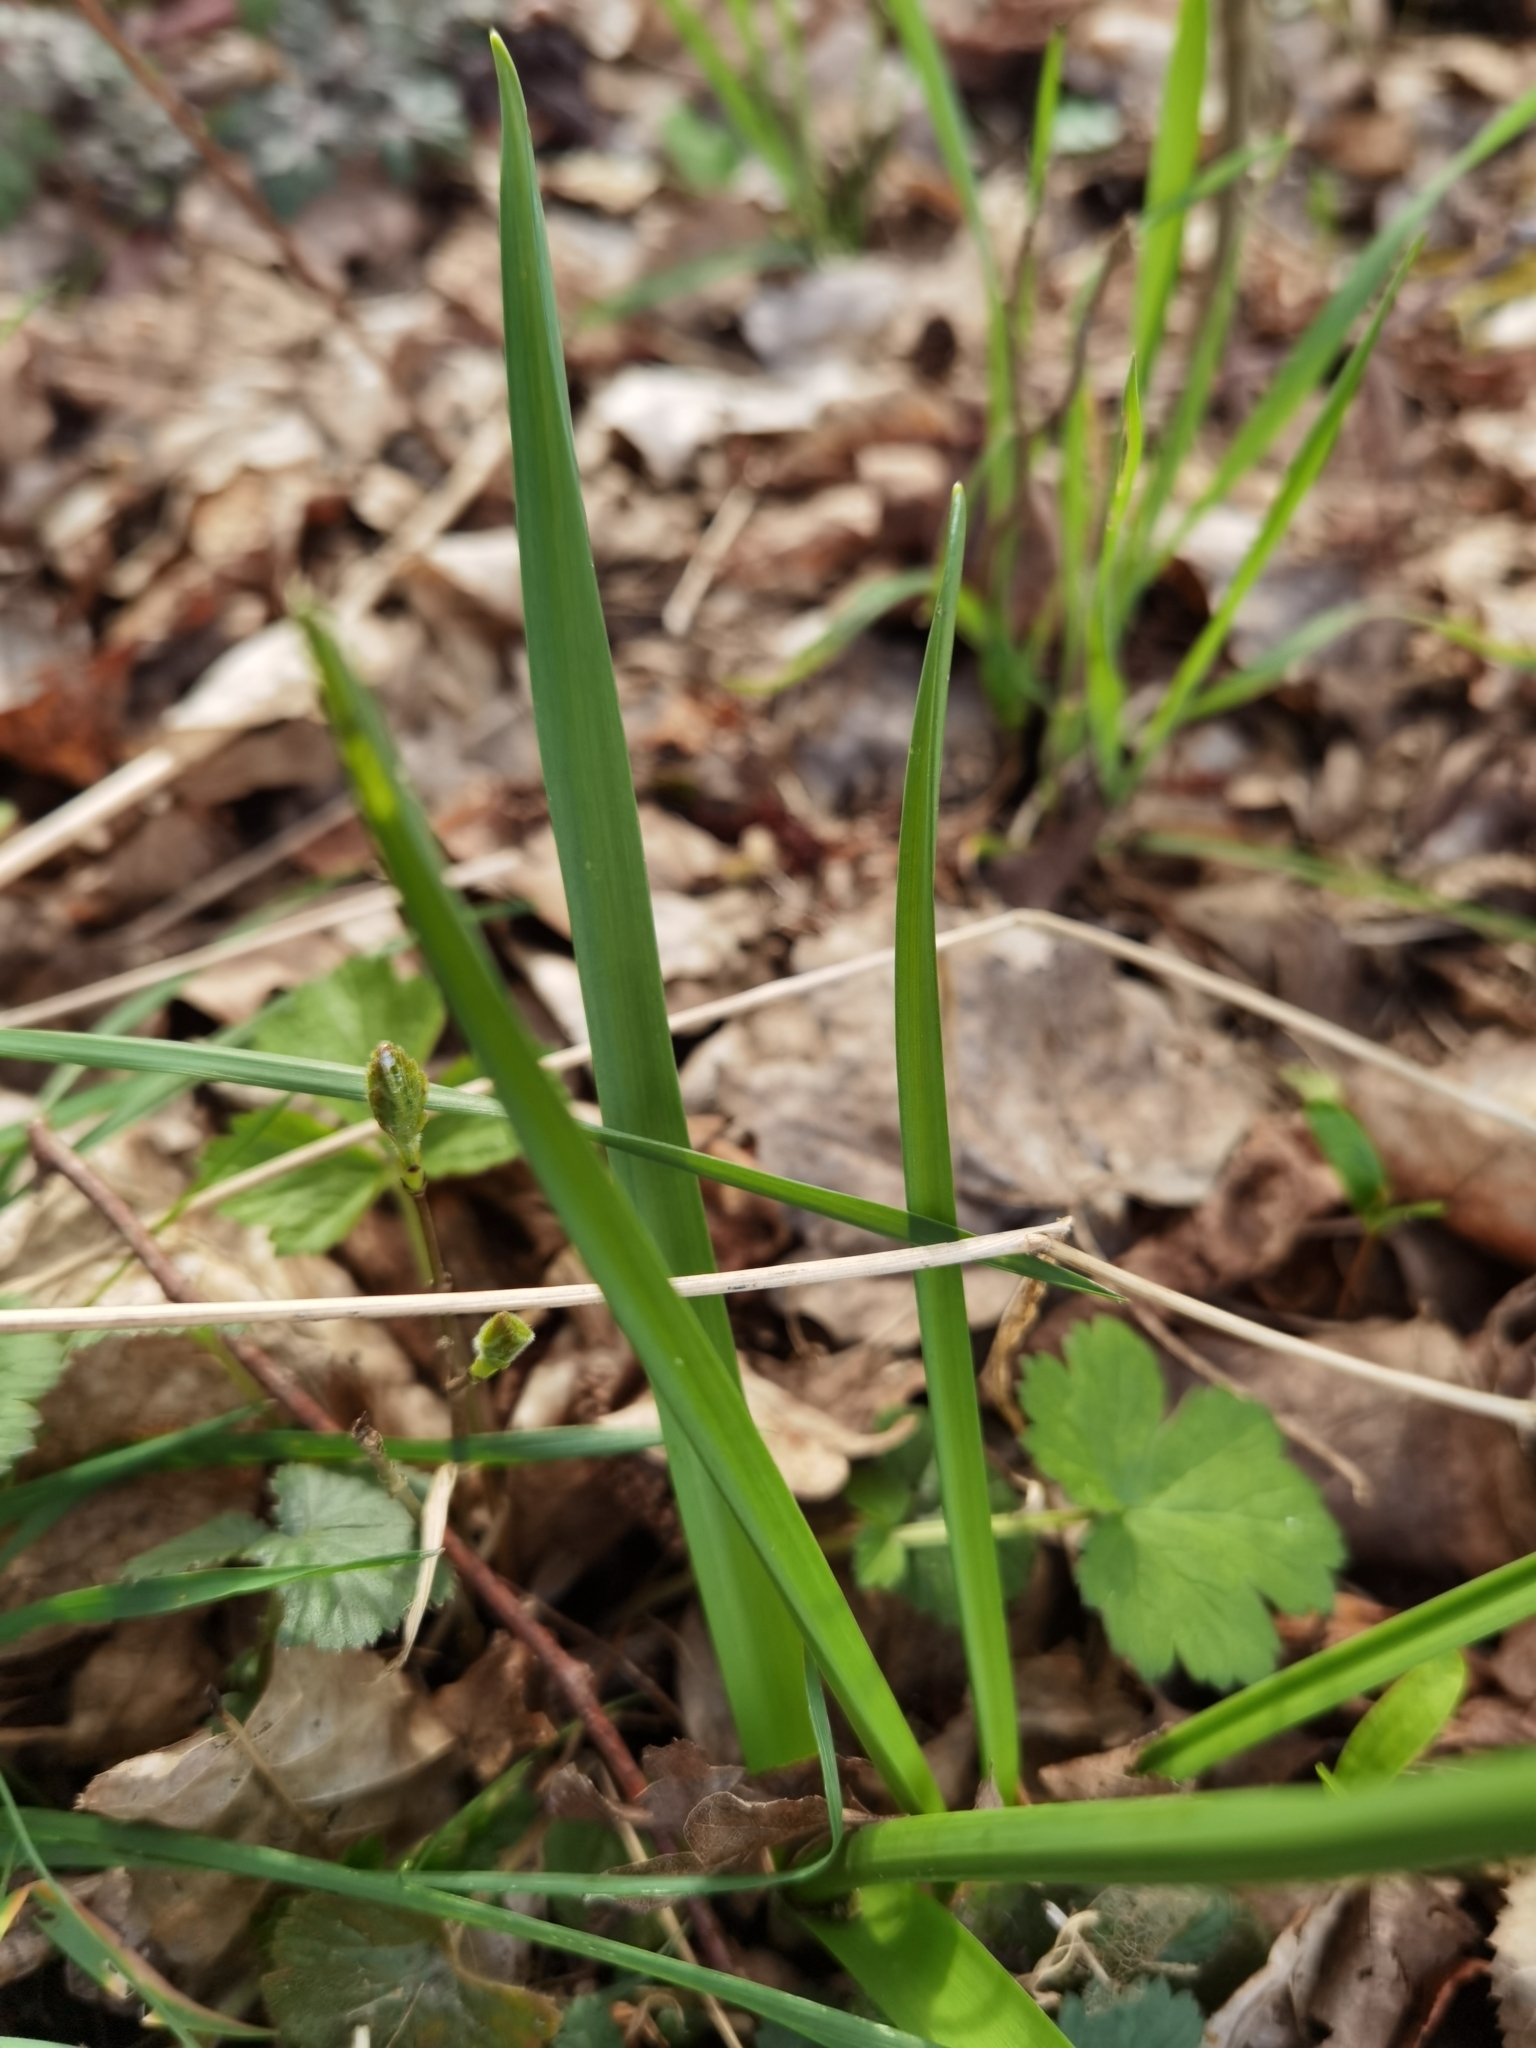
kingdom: Plantae
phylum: Tracheophyta
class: Liliopsida
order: Asparagales
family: Amaryllidaceae
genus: Narcissus
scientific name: Narcissus cyclazetta
